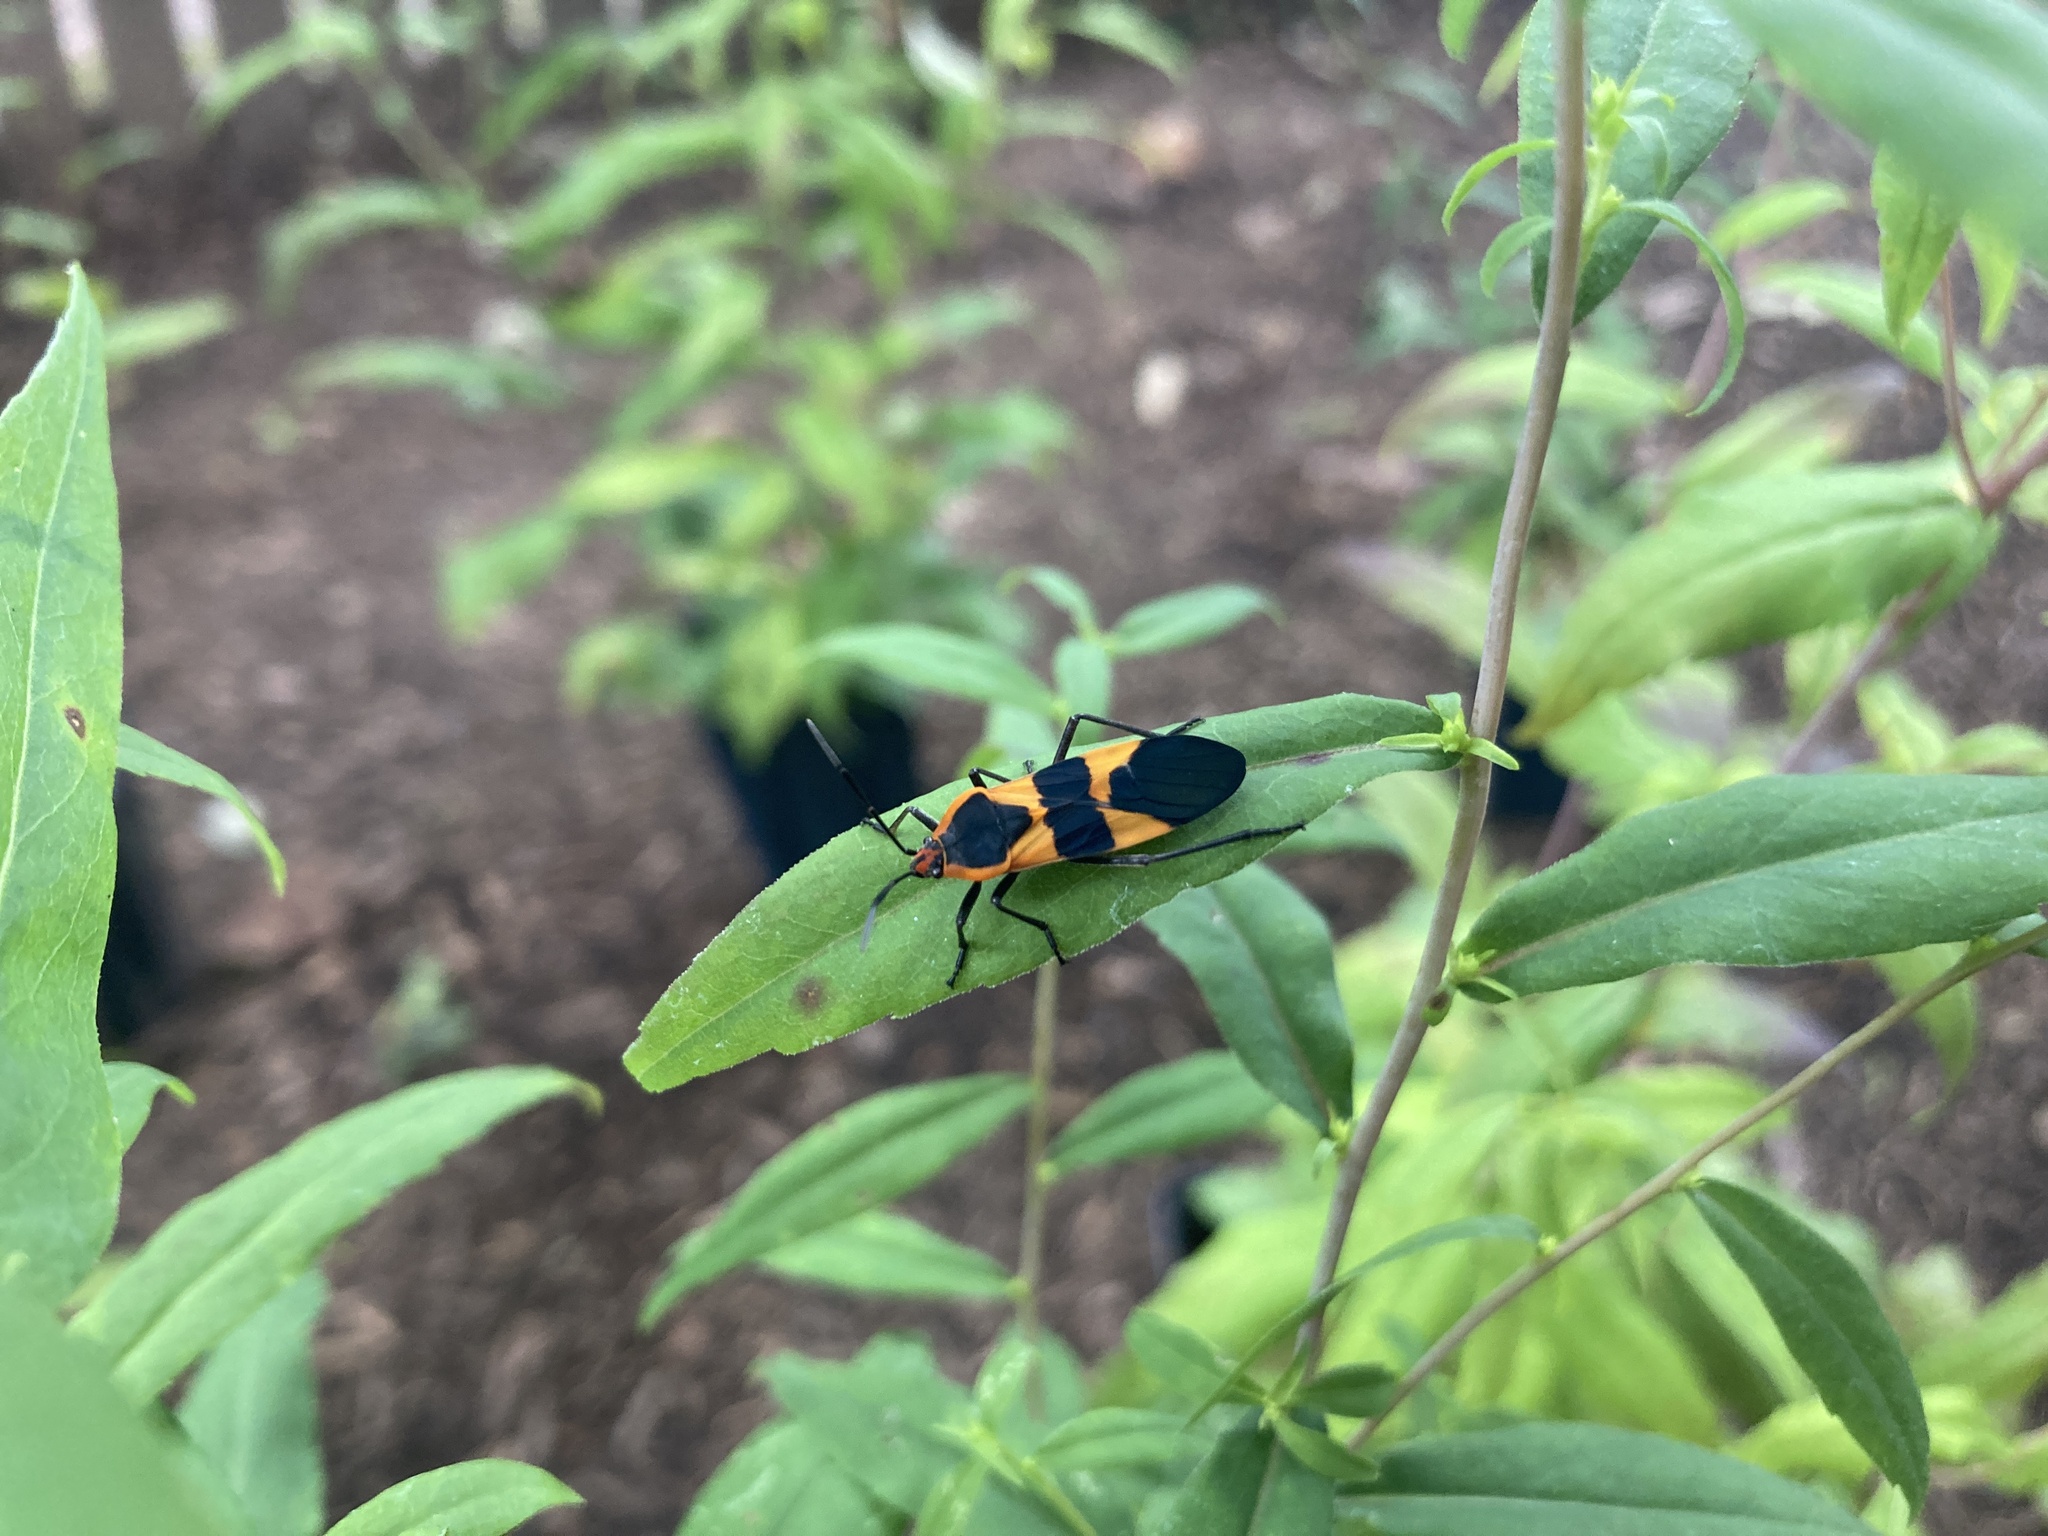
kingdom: Animalia
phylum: Arthropoda
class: Insecta
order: Hemiptera
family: Lygaeidae
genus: Oncopeltus
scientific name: Oncopeltus fasciatus
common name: Large milkweed bug
